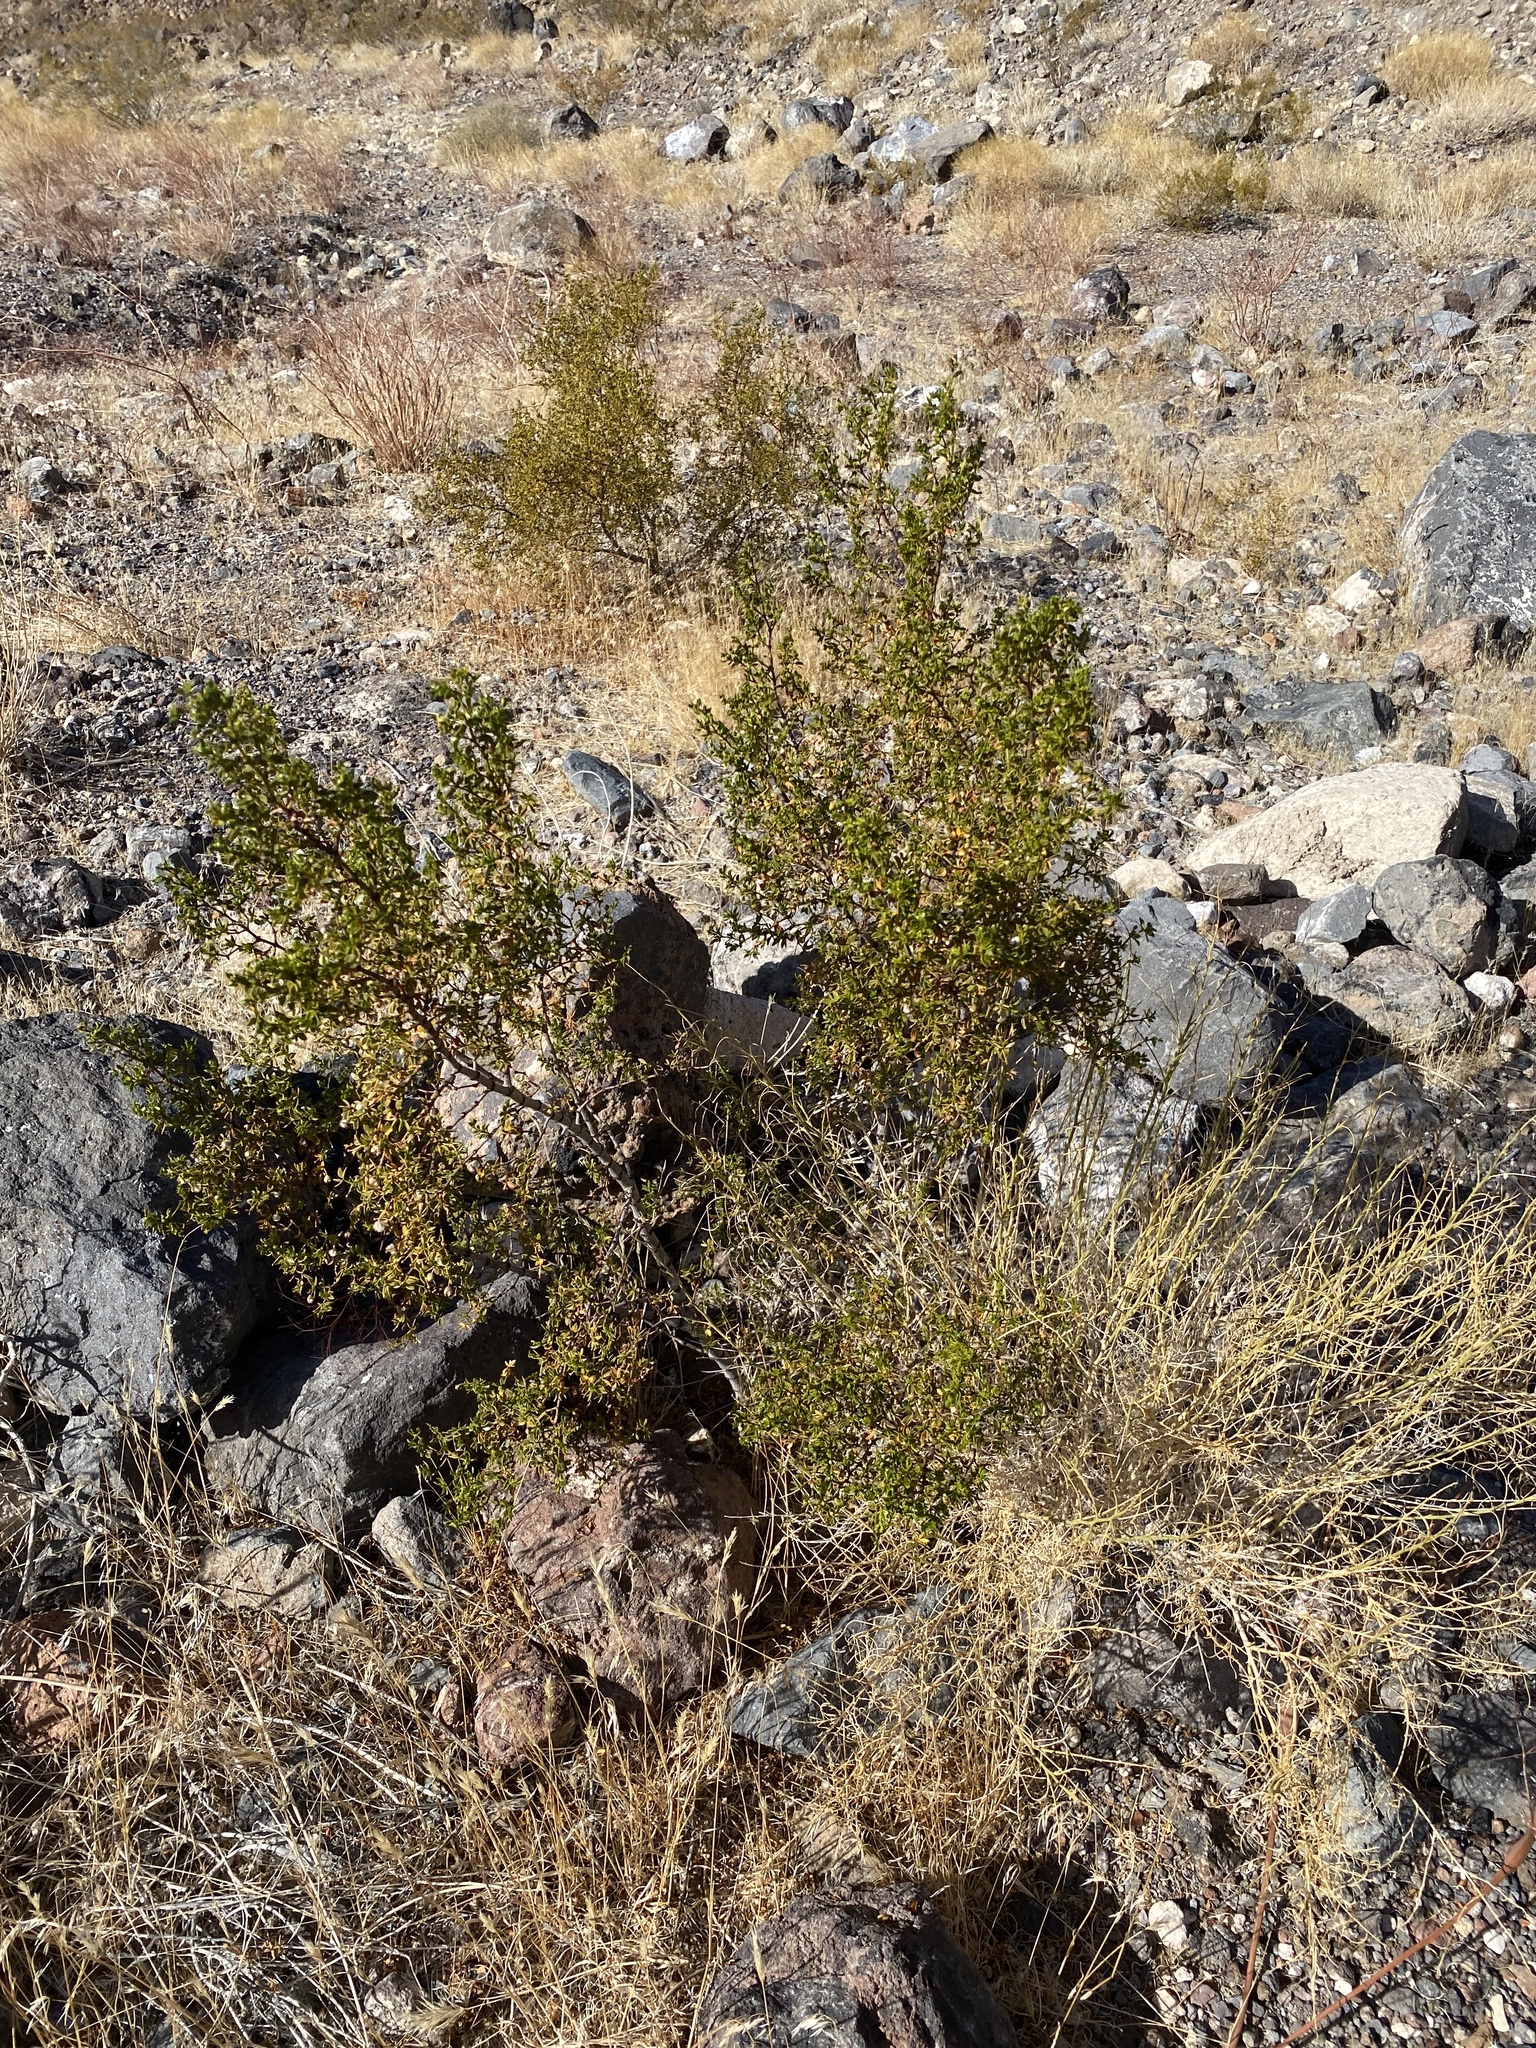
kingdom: Plantae
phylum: Tracheophyta
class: Magnoliopsida
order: Zygophyllales
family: Zygophyllaceae
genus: Larrea
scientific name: Larrea tridentata
